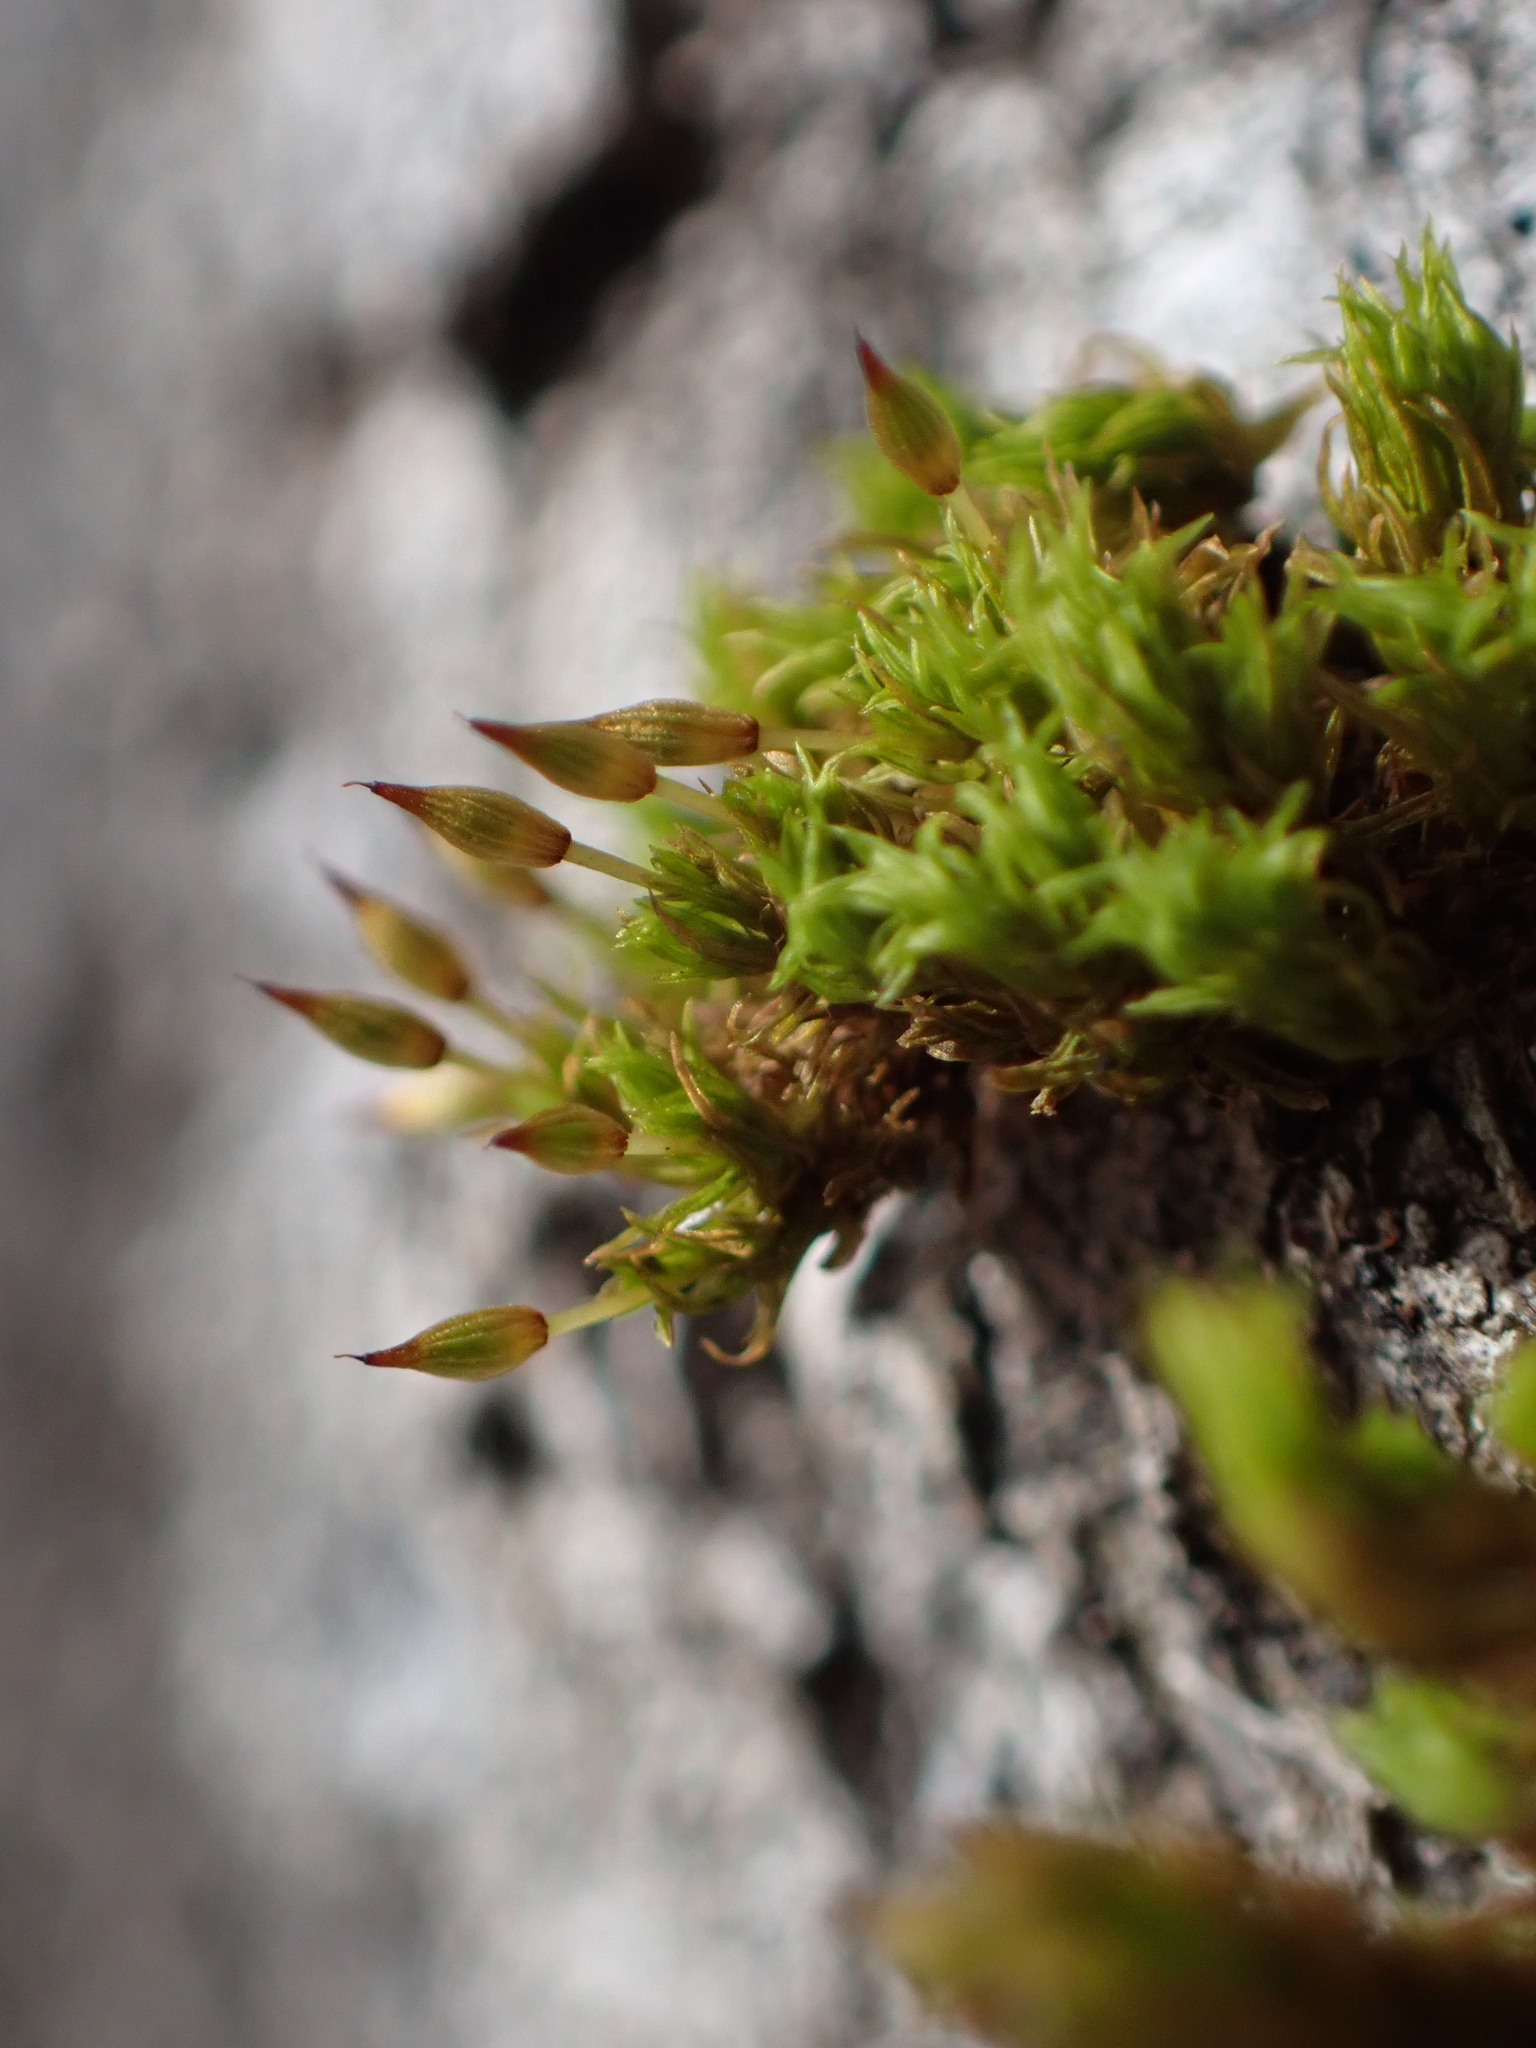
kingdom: Plantae
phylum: Bryophyta
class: Bryopsida
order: Orthotrichales
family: Orthotrichaceae
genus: Orthotrichum
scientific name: Orthotrichum columbicum
